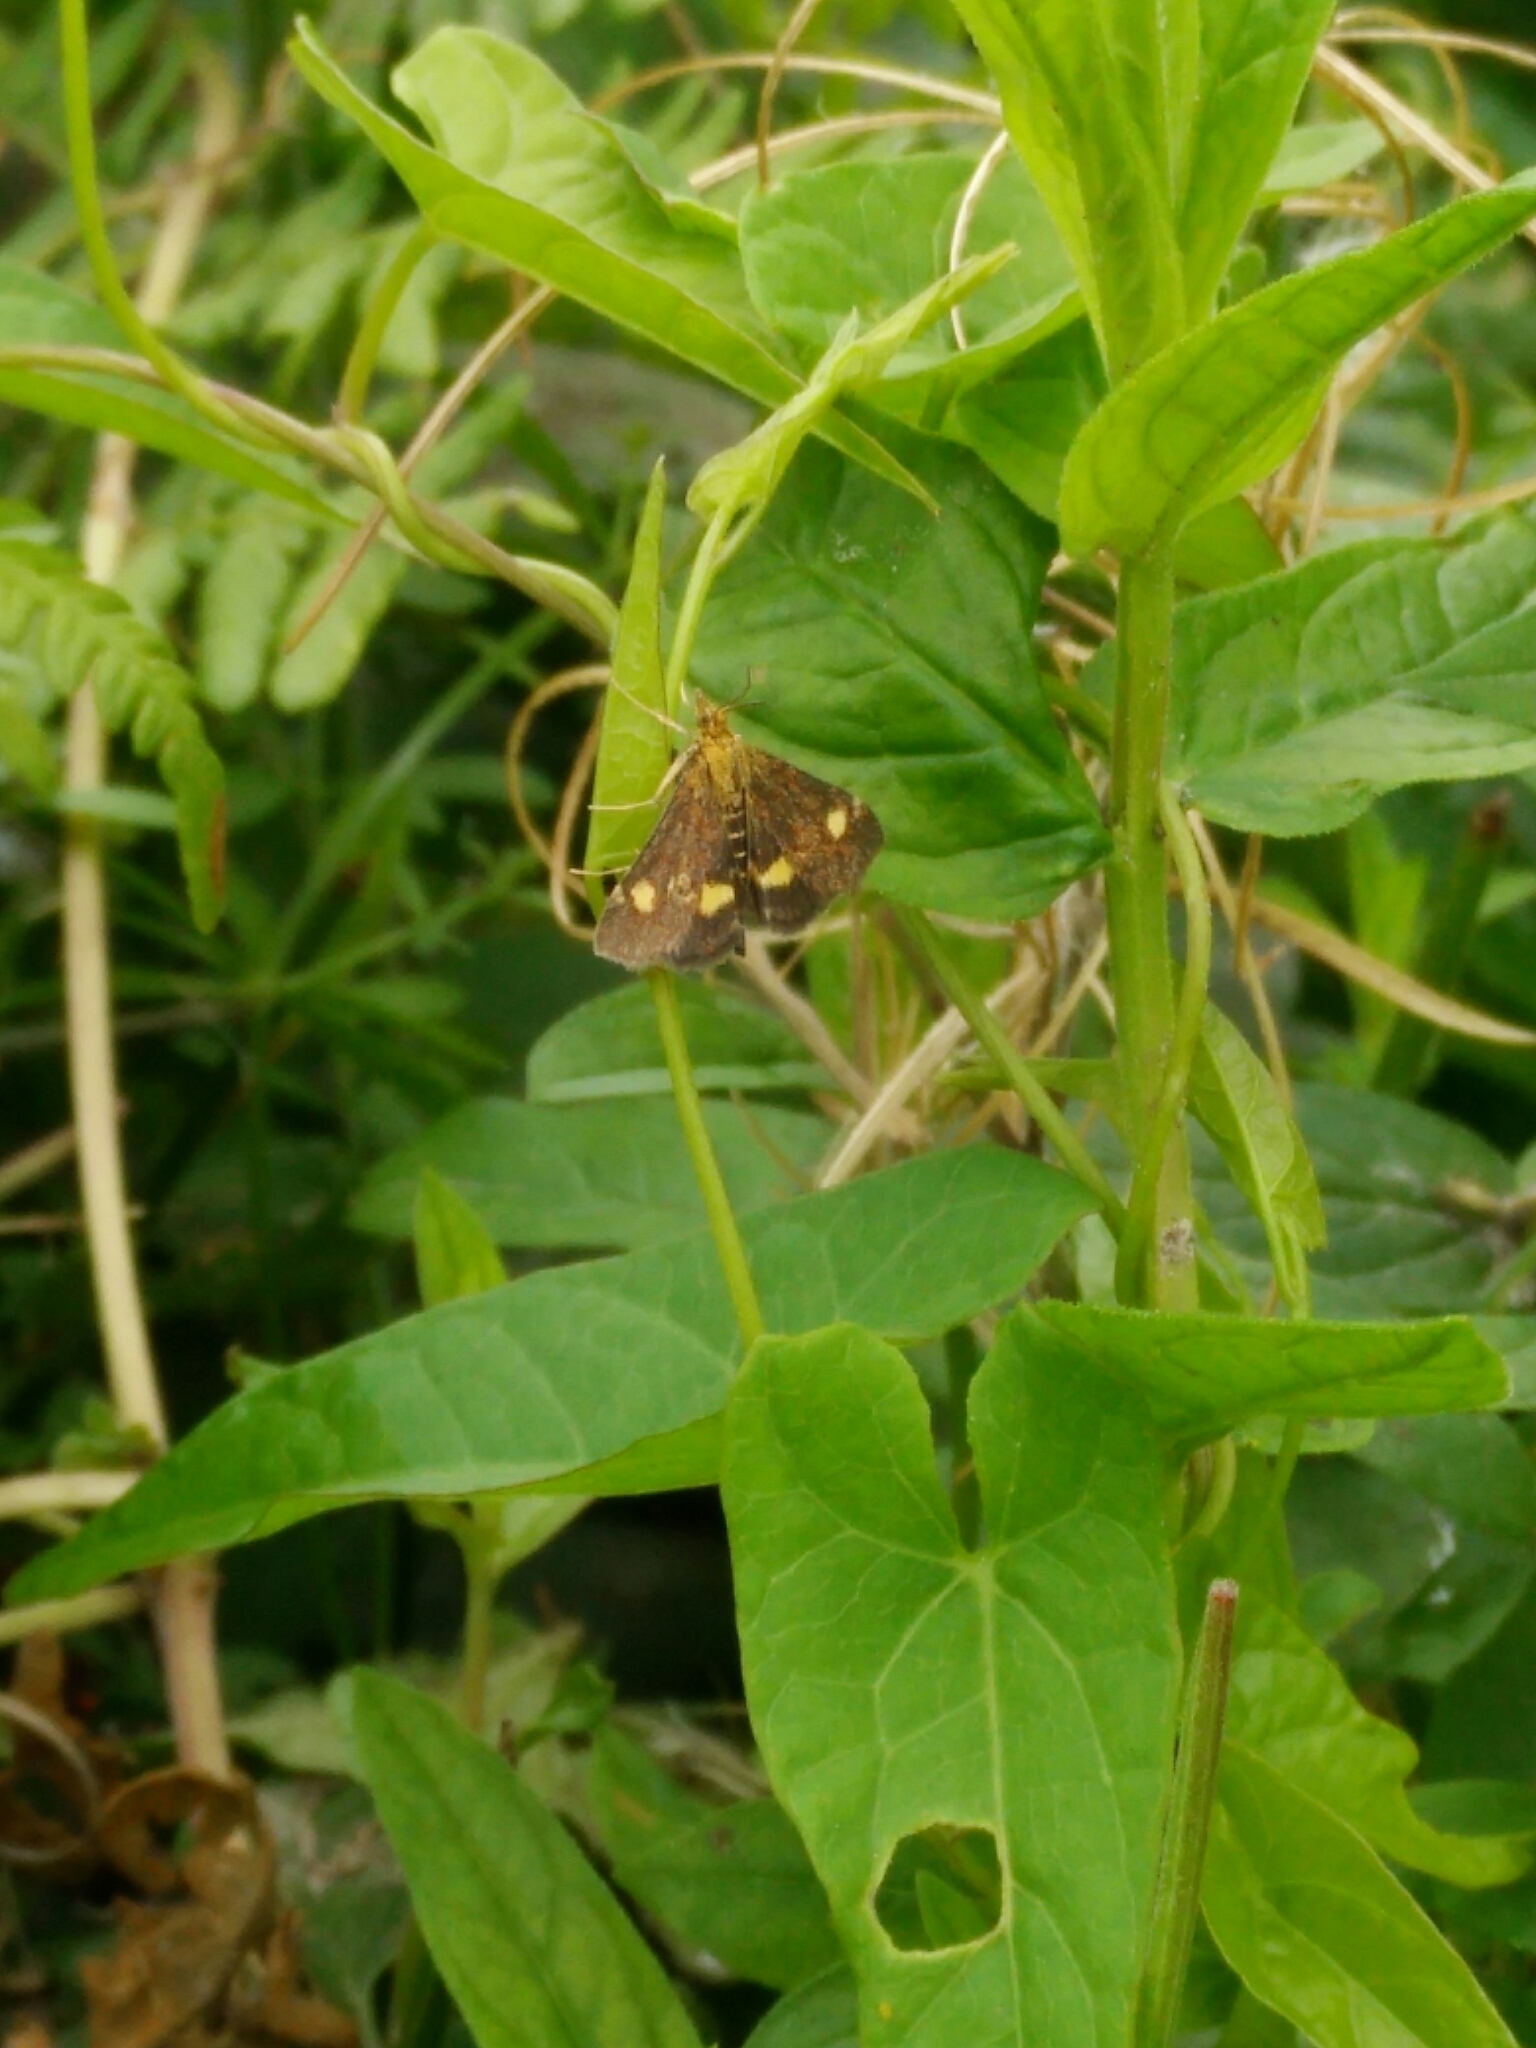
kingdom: Animalia
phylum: Arthropoda
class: Insecta
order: Lepidoptera
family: Crambidae
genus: Pyrausta
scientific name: Pyrausta aurata
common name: Small purple & gold
